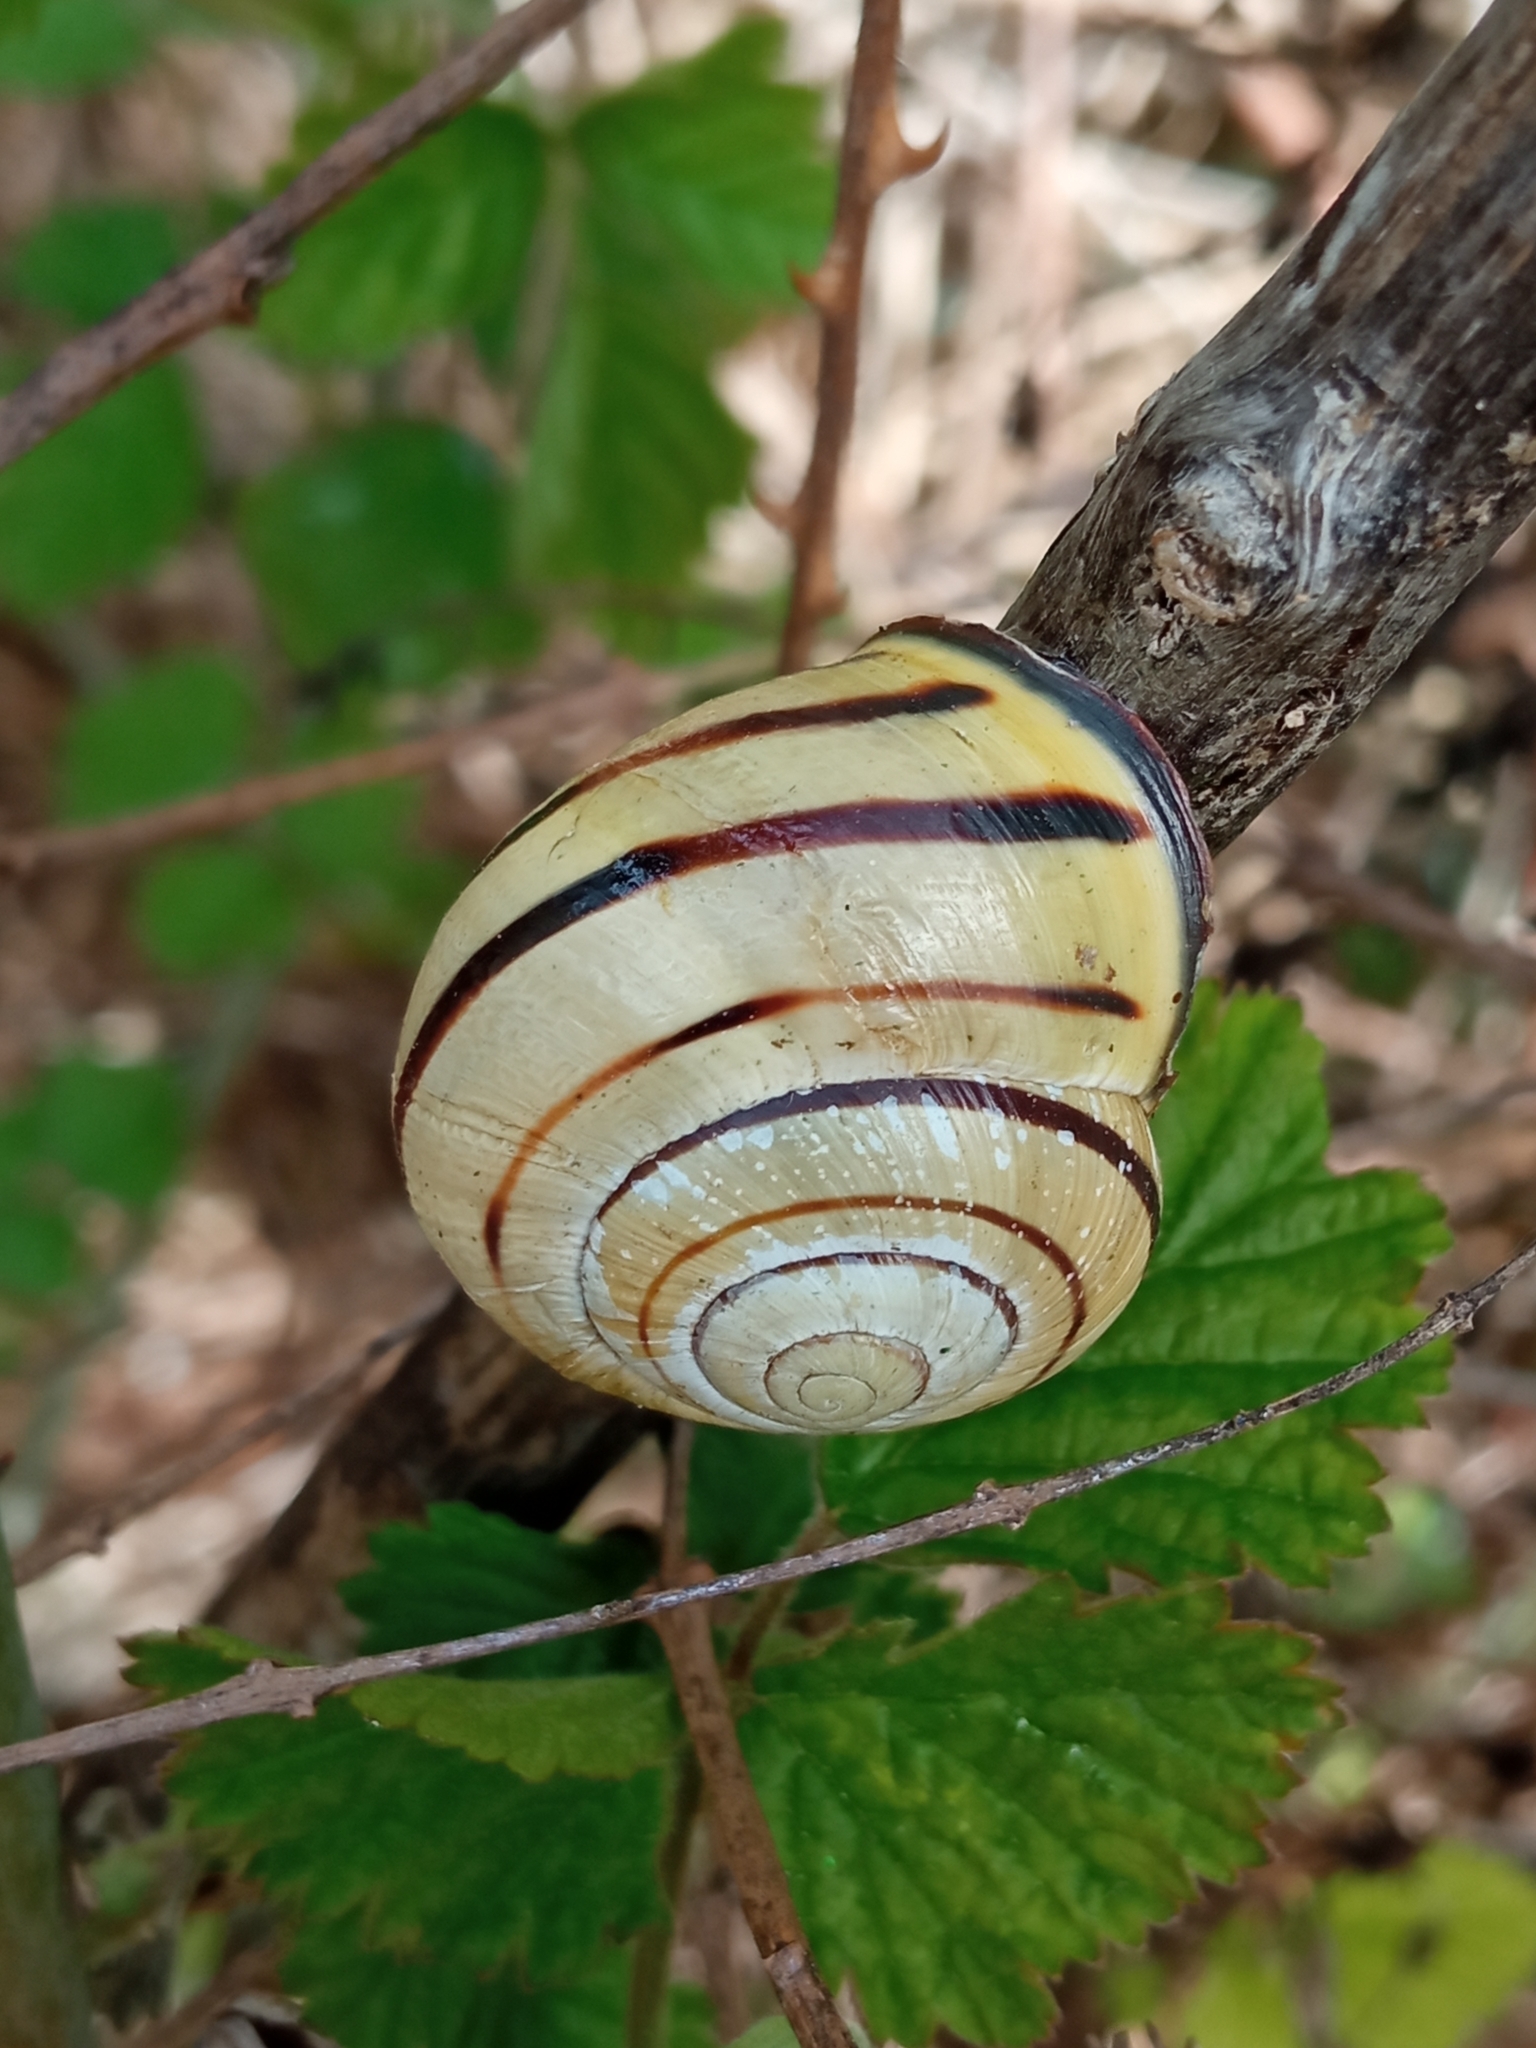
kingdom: Animalia
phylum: Mollusca
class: Gastropoda
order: Stylommatophora
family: Helicidae
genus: Cepaea
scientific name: Cepaea nemoralis
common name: Grovesnail
